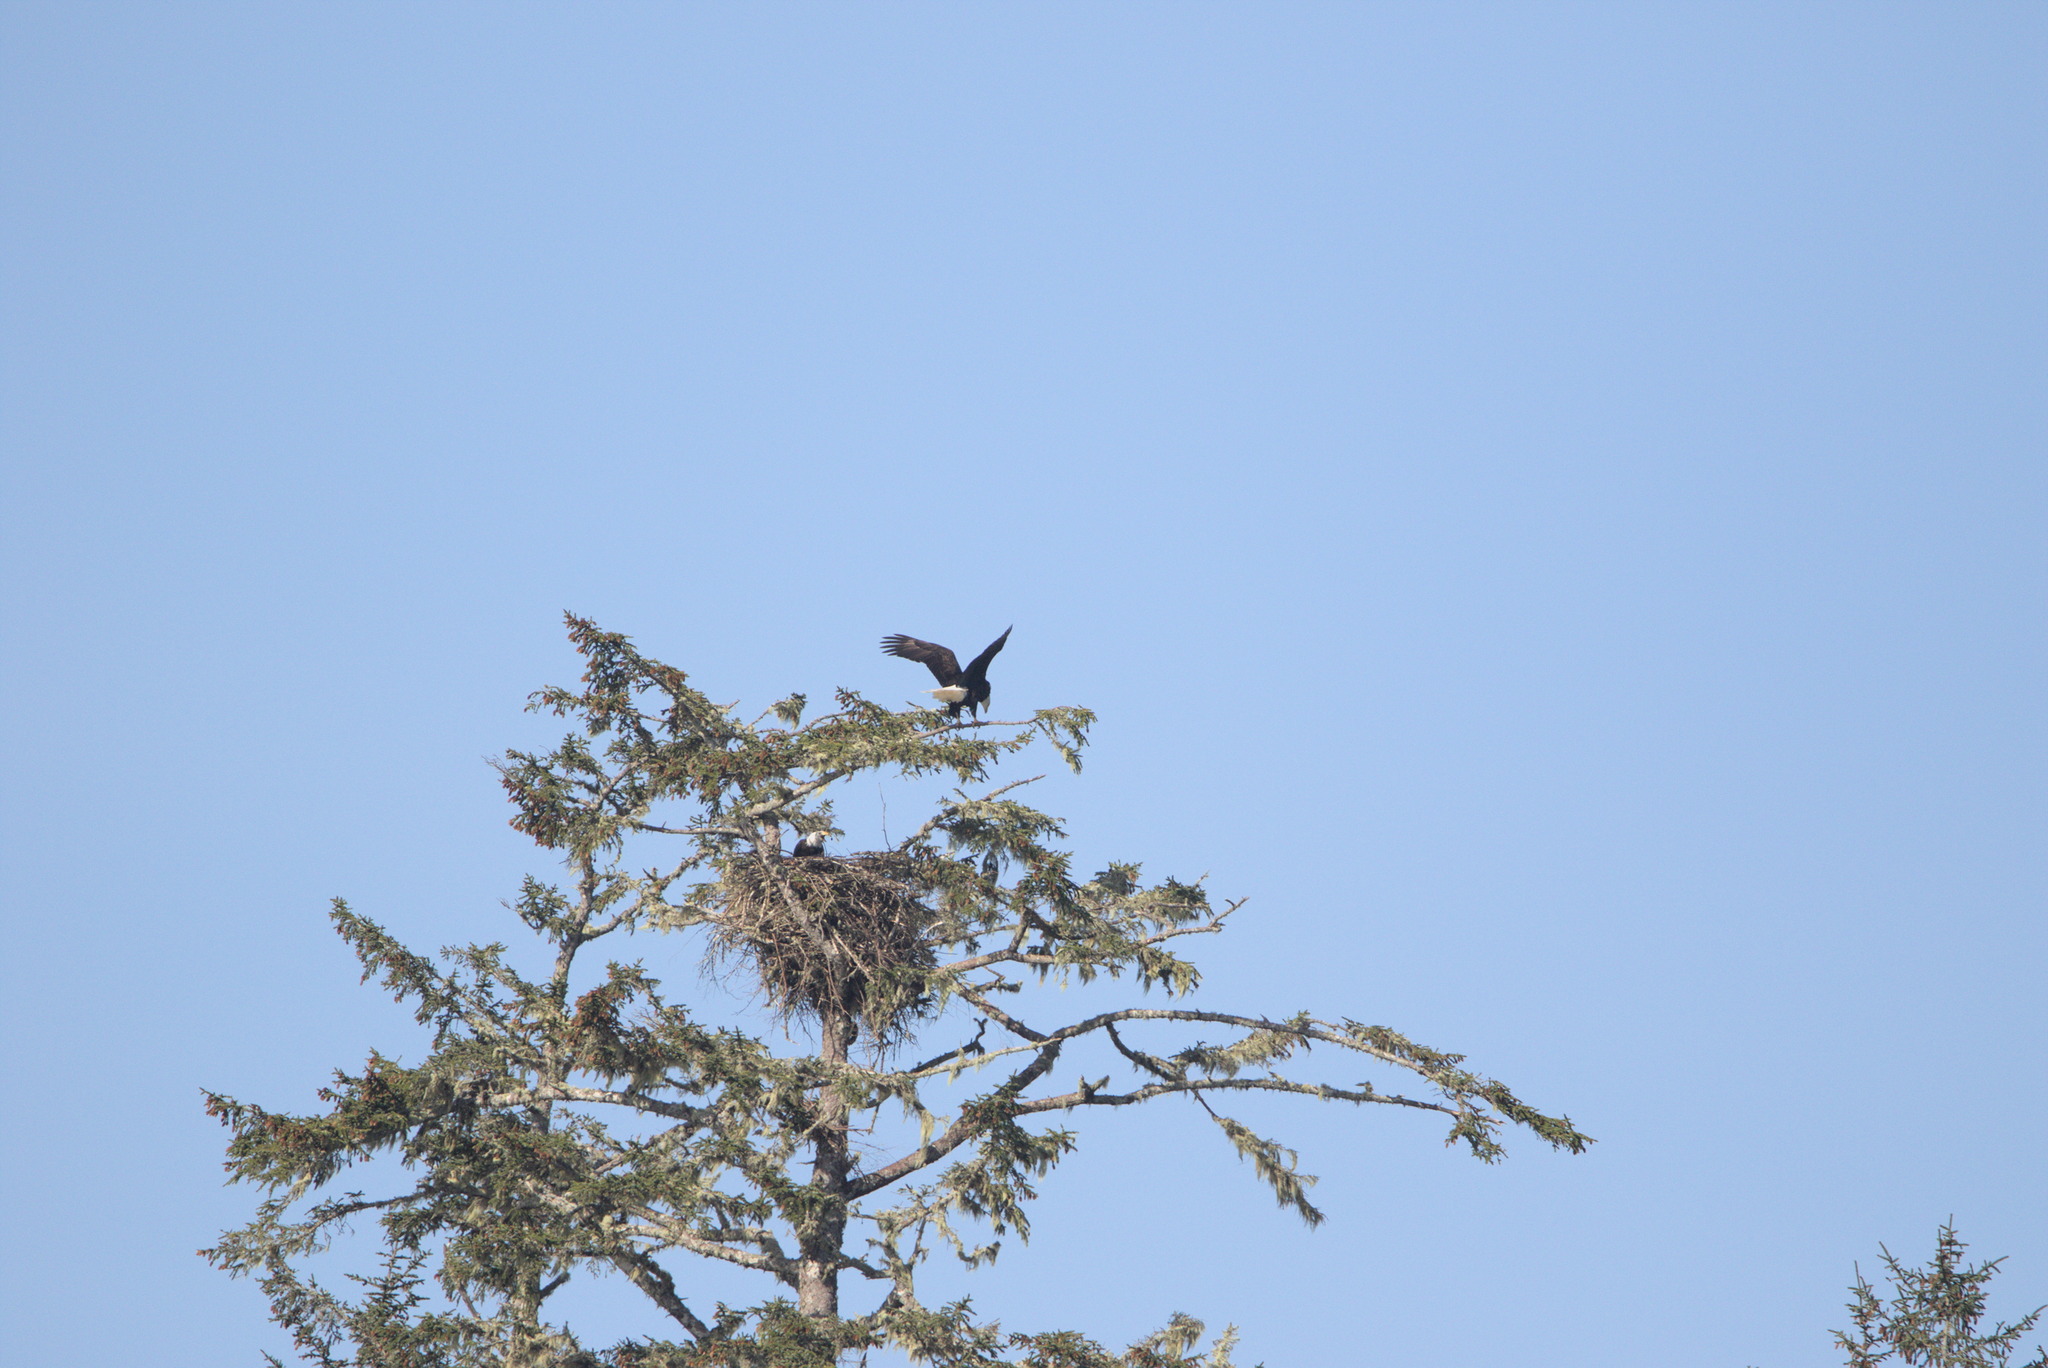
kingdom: Animalia
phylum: Chordata
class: Aves
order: Accipitriformes
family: Accipitridae
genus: Haliaeetus
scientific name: Haliaeetus leucocephalus
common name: Bald eagle
